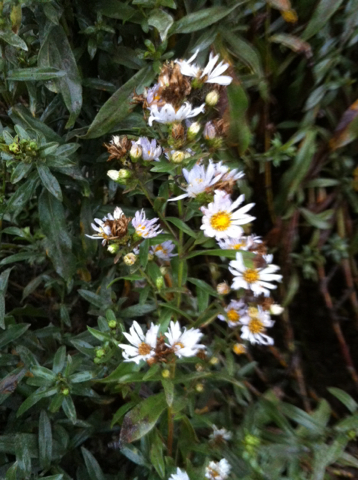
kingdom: Plantae
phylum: Tracheophyta
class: Magnoliopsida
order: Asterales
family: Asteraceae
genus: Symphyotrichum
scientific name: Symphyotrichum chilense
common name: Pacific aster
